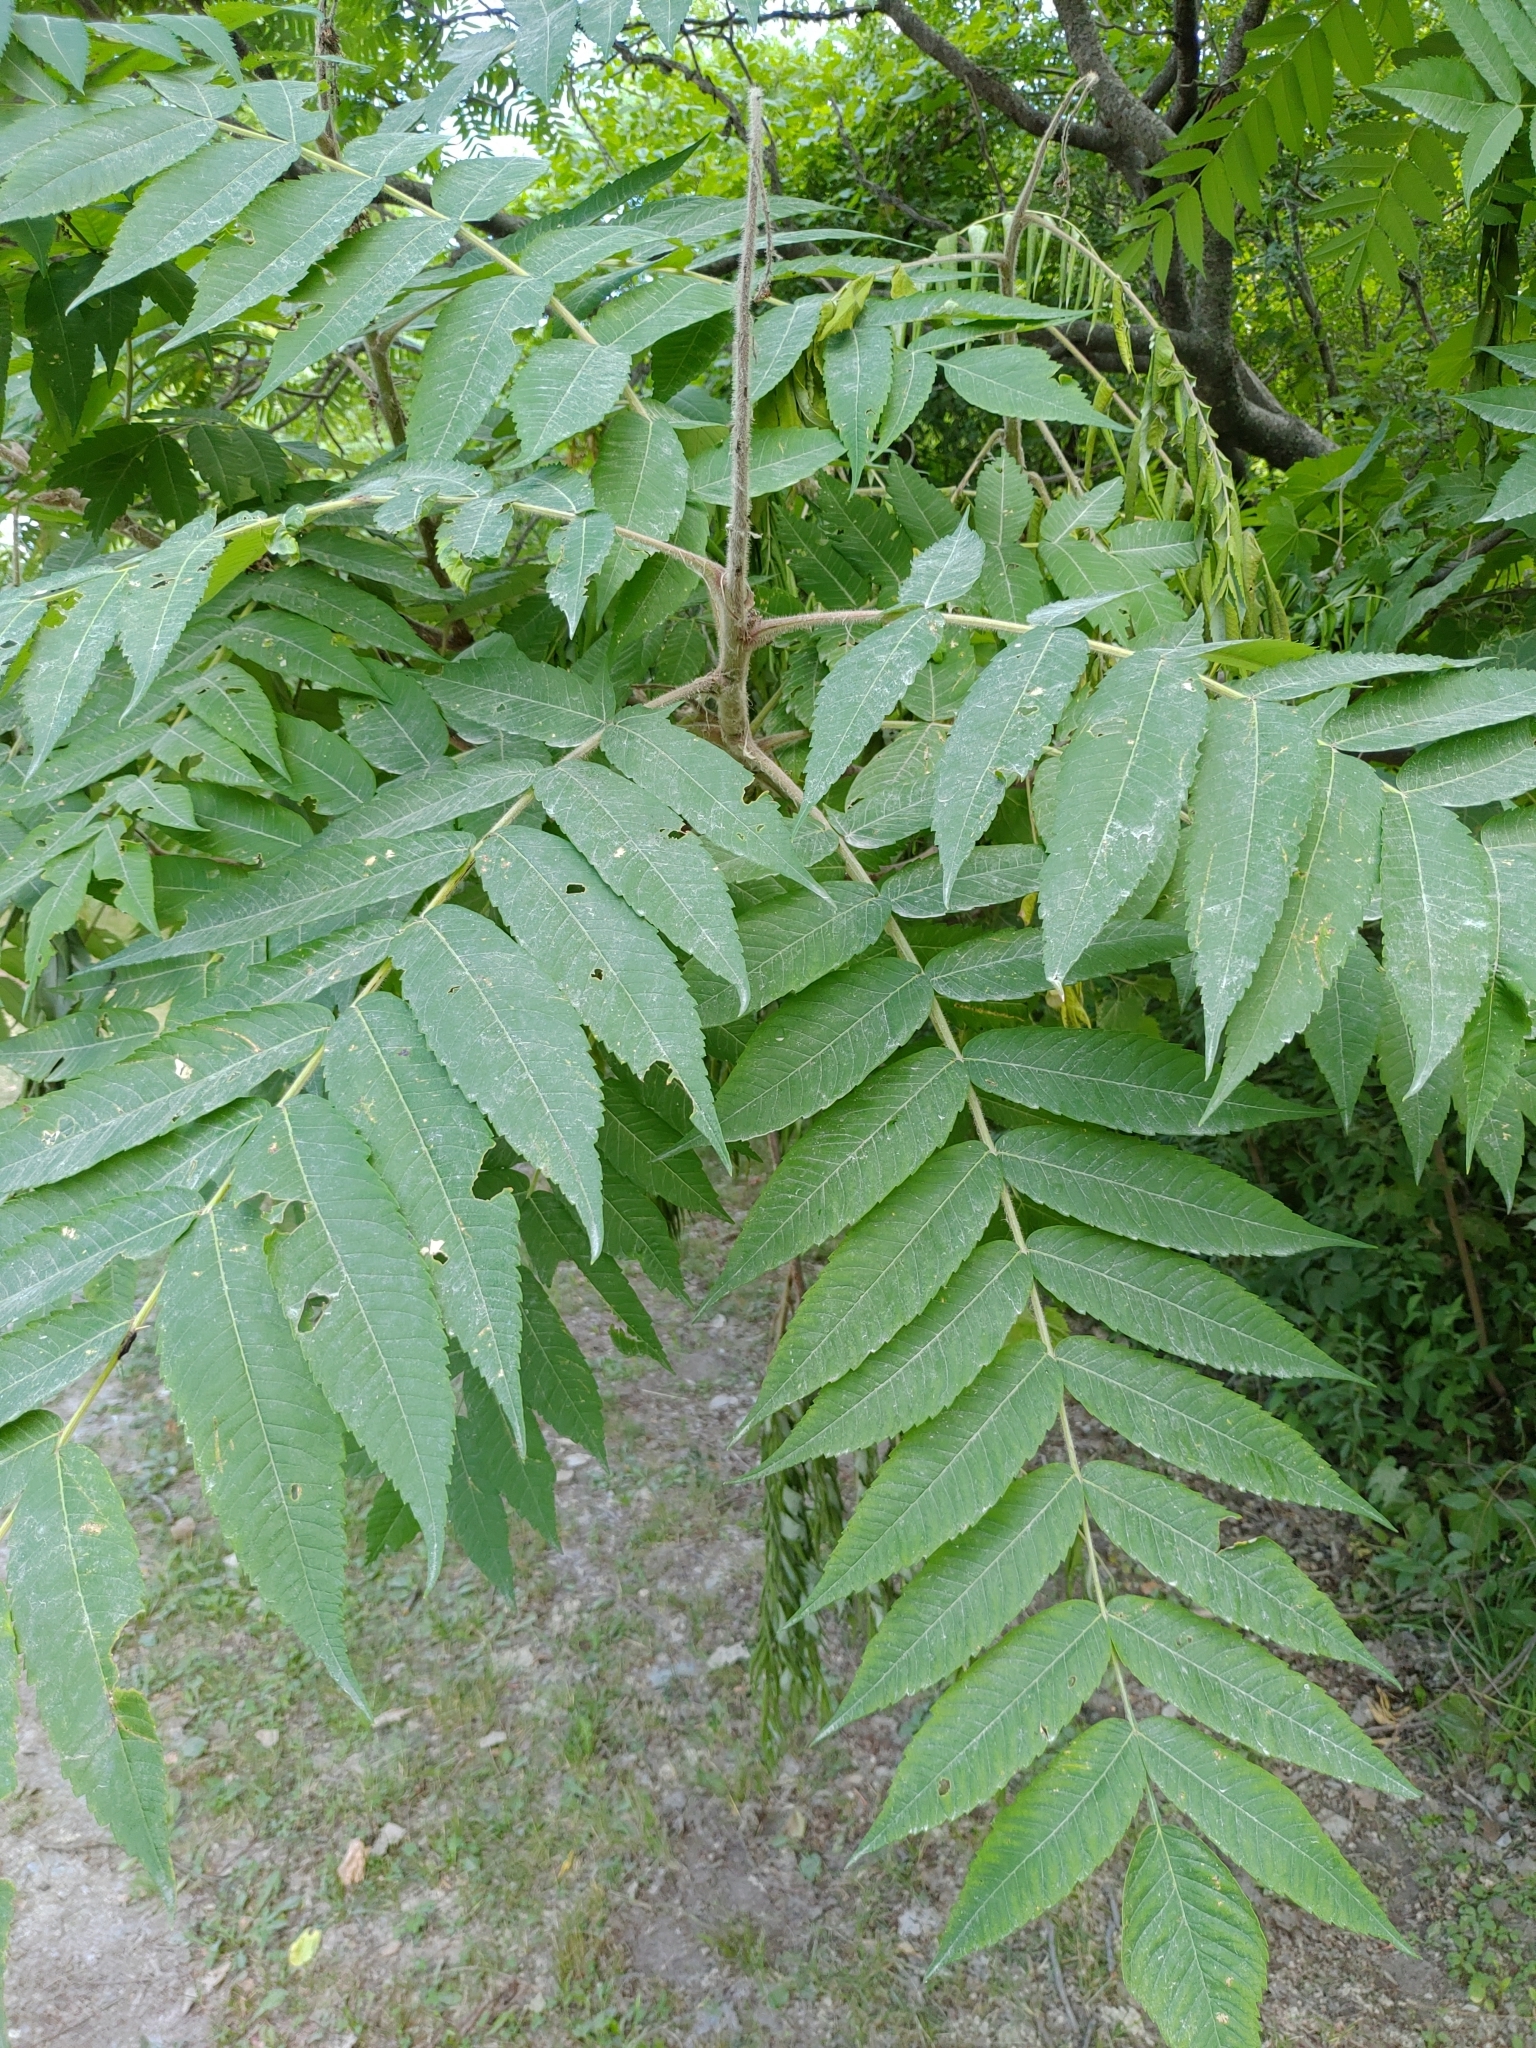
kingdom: Plantae
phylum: Tracheophyta
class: Magnoliopsida
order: Sapindales
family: Anacardiaceae
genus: Rhus
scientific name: Rhus typhina
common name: Staghorn sumac
